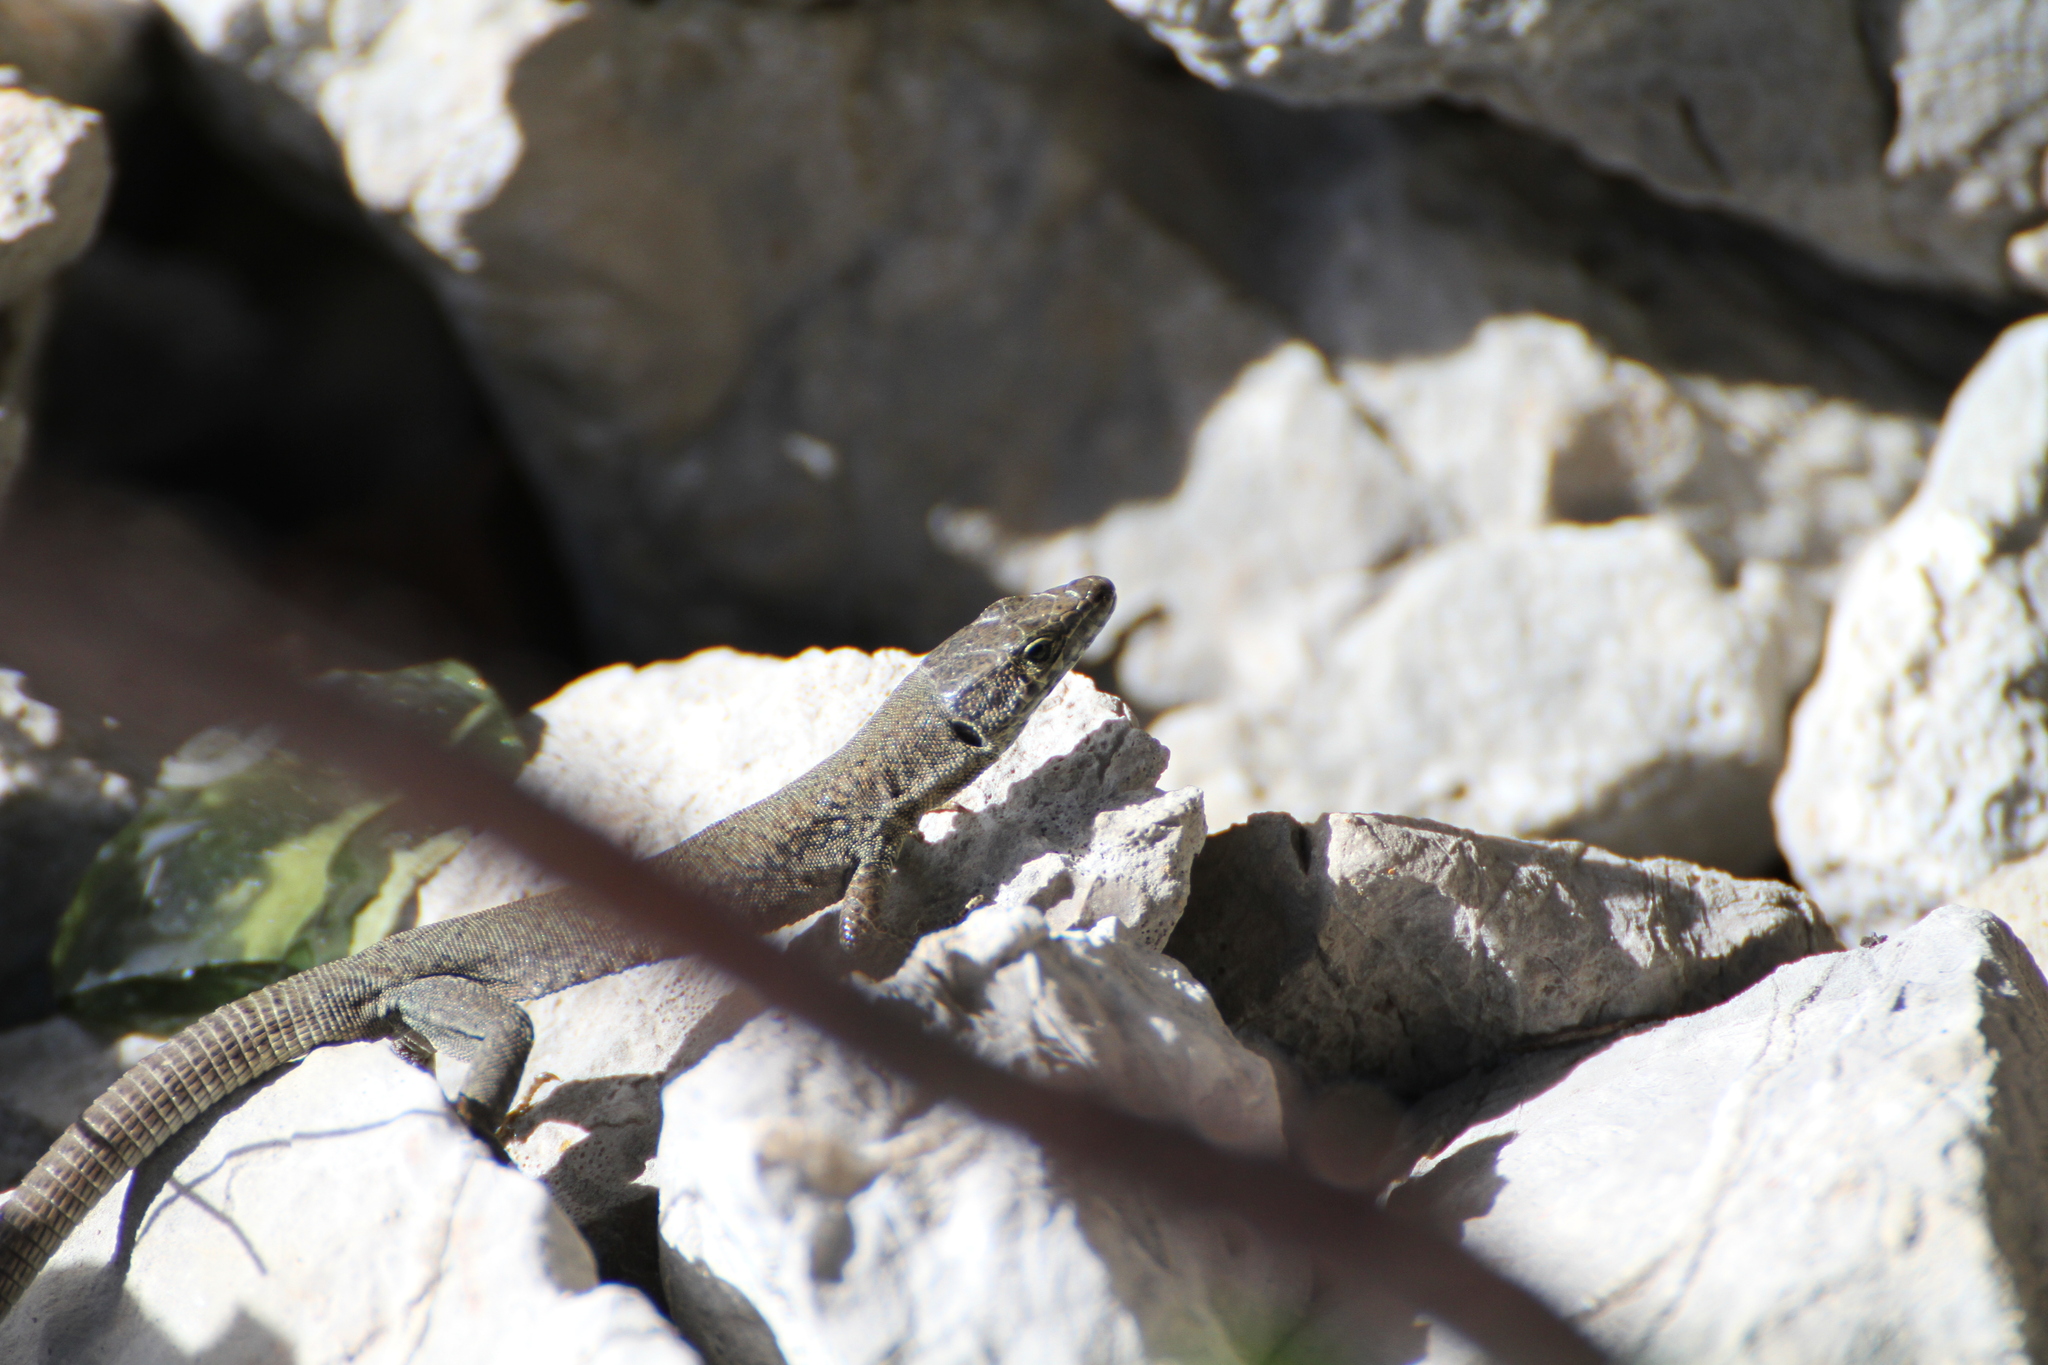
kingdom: Animalia
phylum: Chordata
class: Squamata
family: Lacertidae
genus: Podarcis
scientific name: Podarcis liolepis
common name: Catalonian wall lizard
